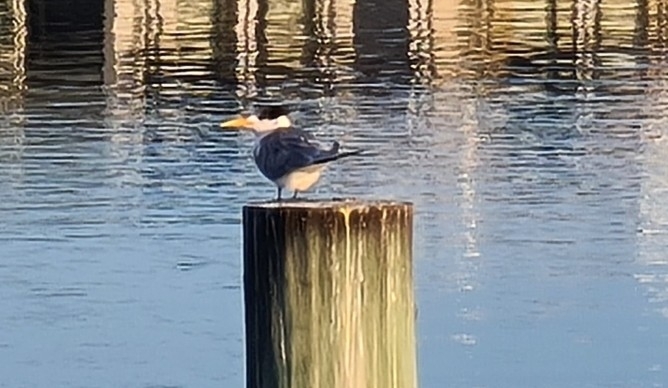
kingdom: Animalia
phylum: Chordata
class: Aves
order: Charadriiformes
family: Laridae
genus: Thalasseus
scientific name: Thalasseus bergii
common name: Greater crested tern
